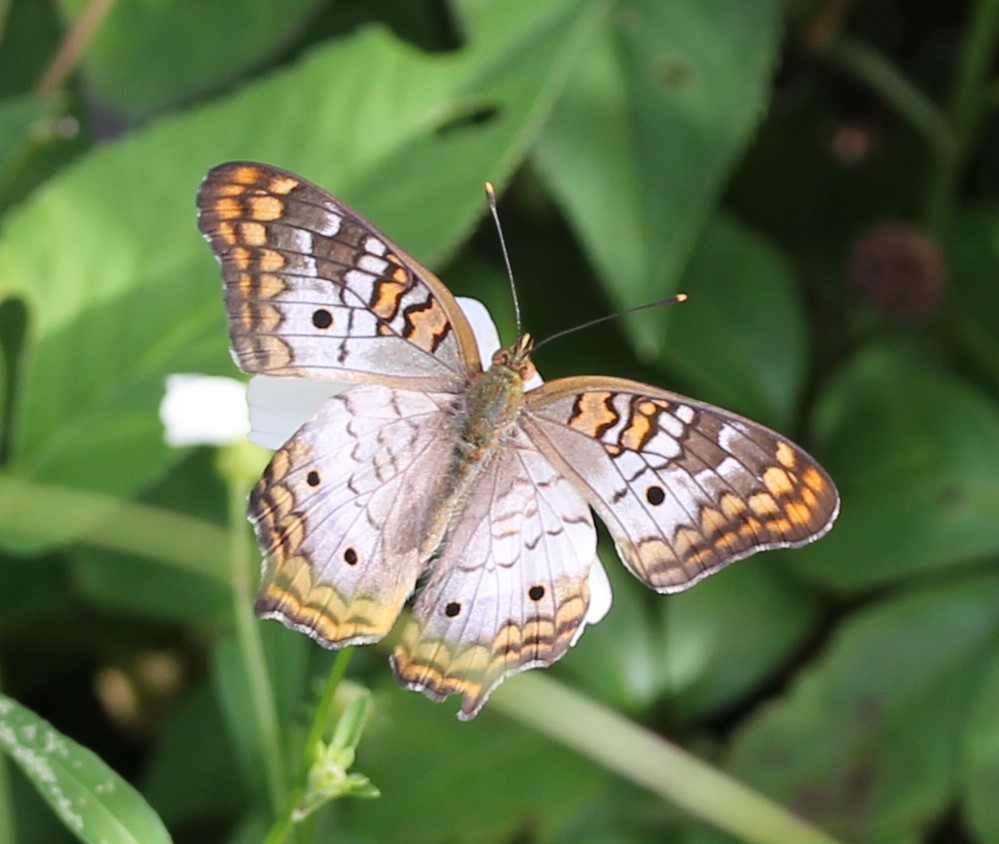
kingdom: Animalia
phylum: Arthropoda
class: Insecta
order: Lepidoptera
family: Nymphalidae
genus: Anartia
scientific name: Anartia jatrophae
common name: White peacock
